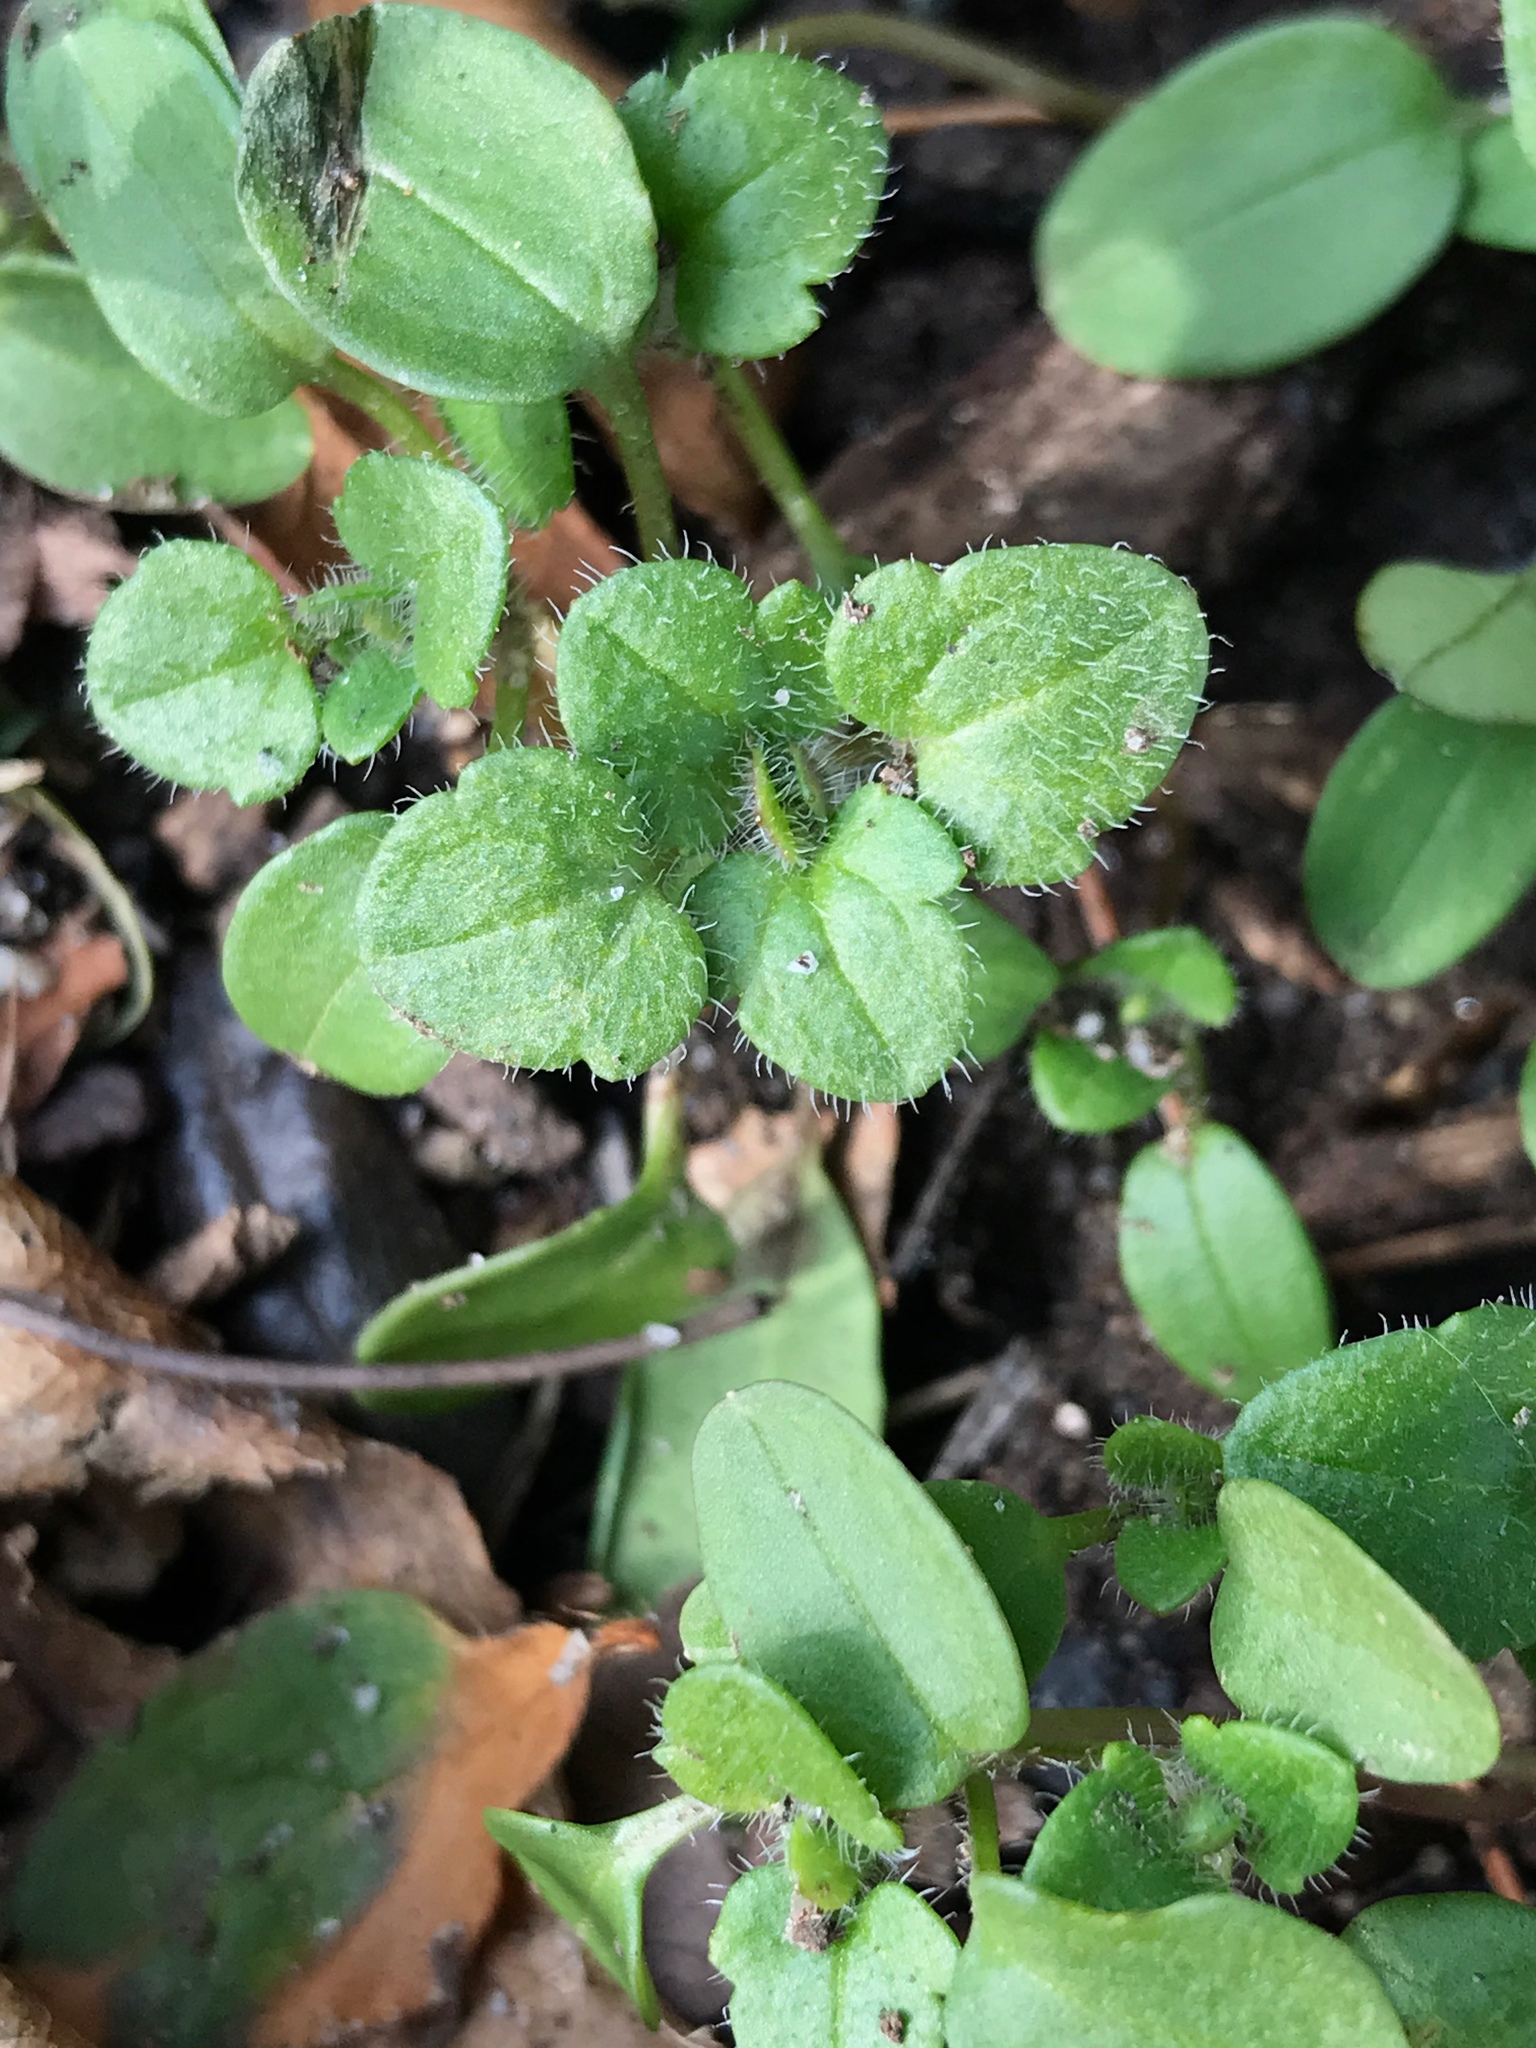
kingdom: Plantae
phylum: Tracheophyta
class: Magnoliopsida
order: Lamiales
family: Plantaginaceae
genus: Veronica
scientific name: Veronica
